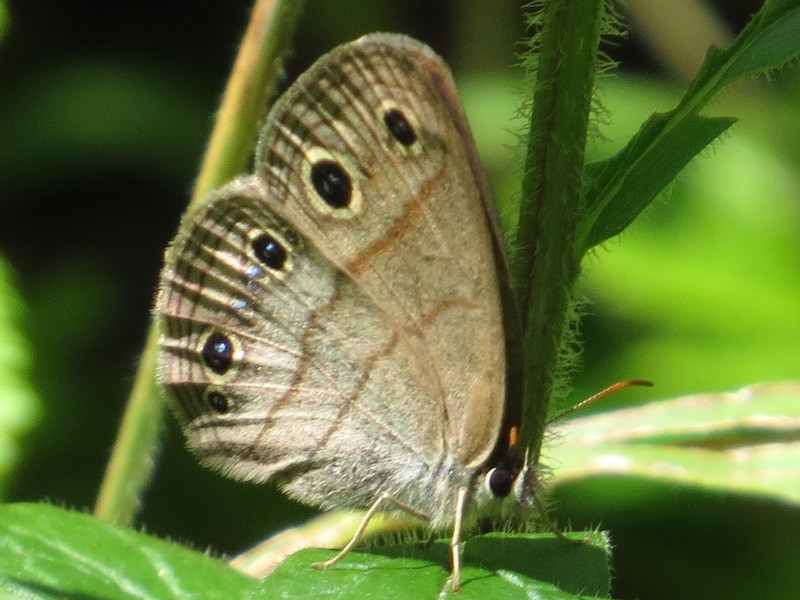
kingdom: Animalia
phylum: Arthropoda
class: Insecta
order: Lepidoptera
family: Nymphalidae
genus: Euptychia
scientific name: Euptychia cymela
